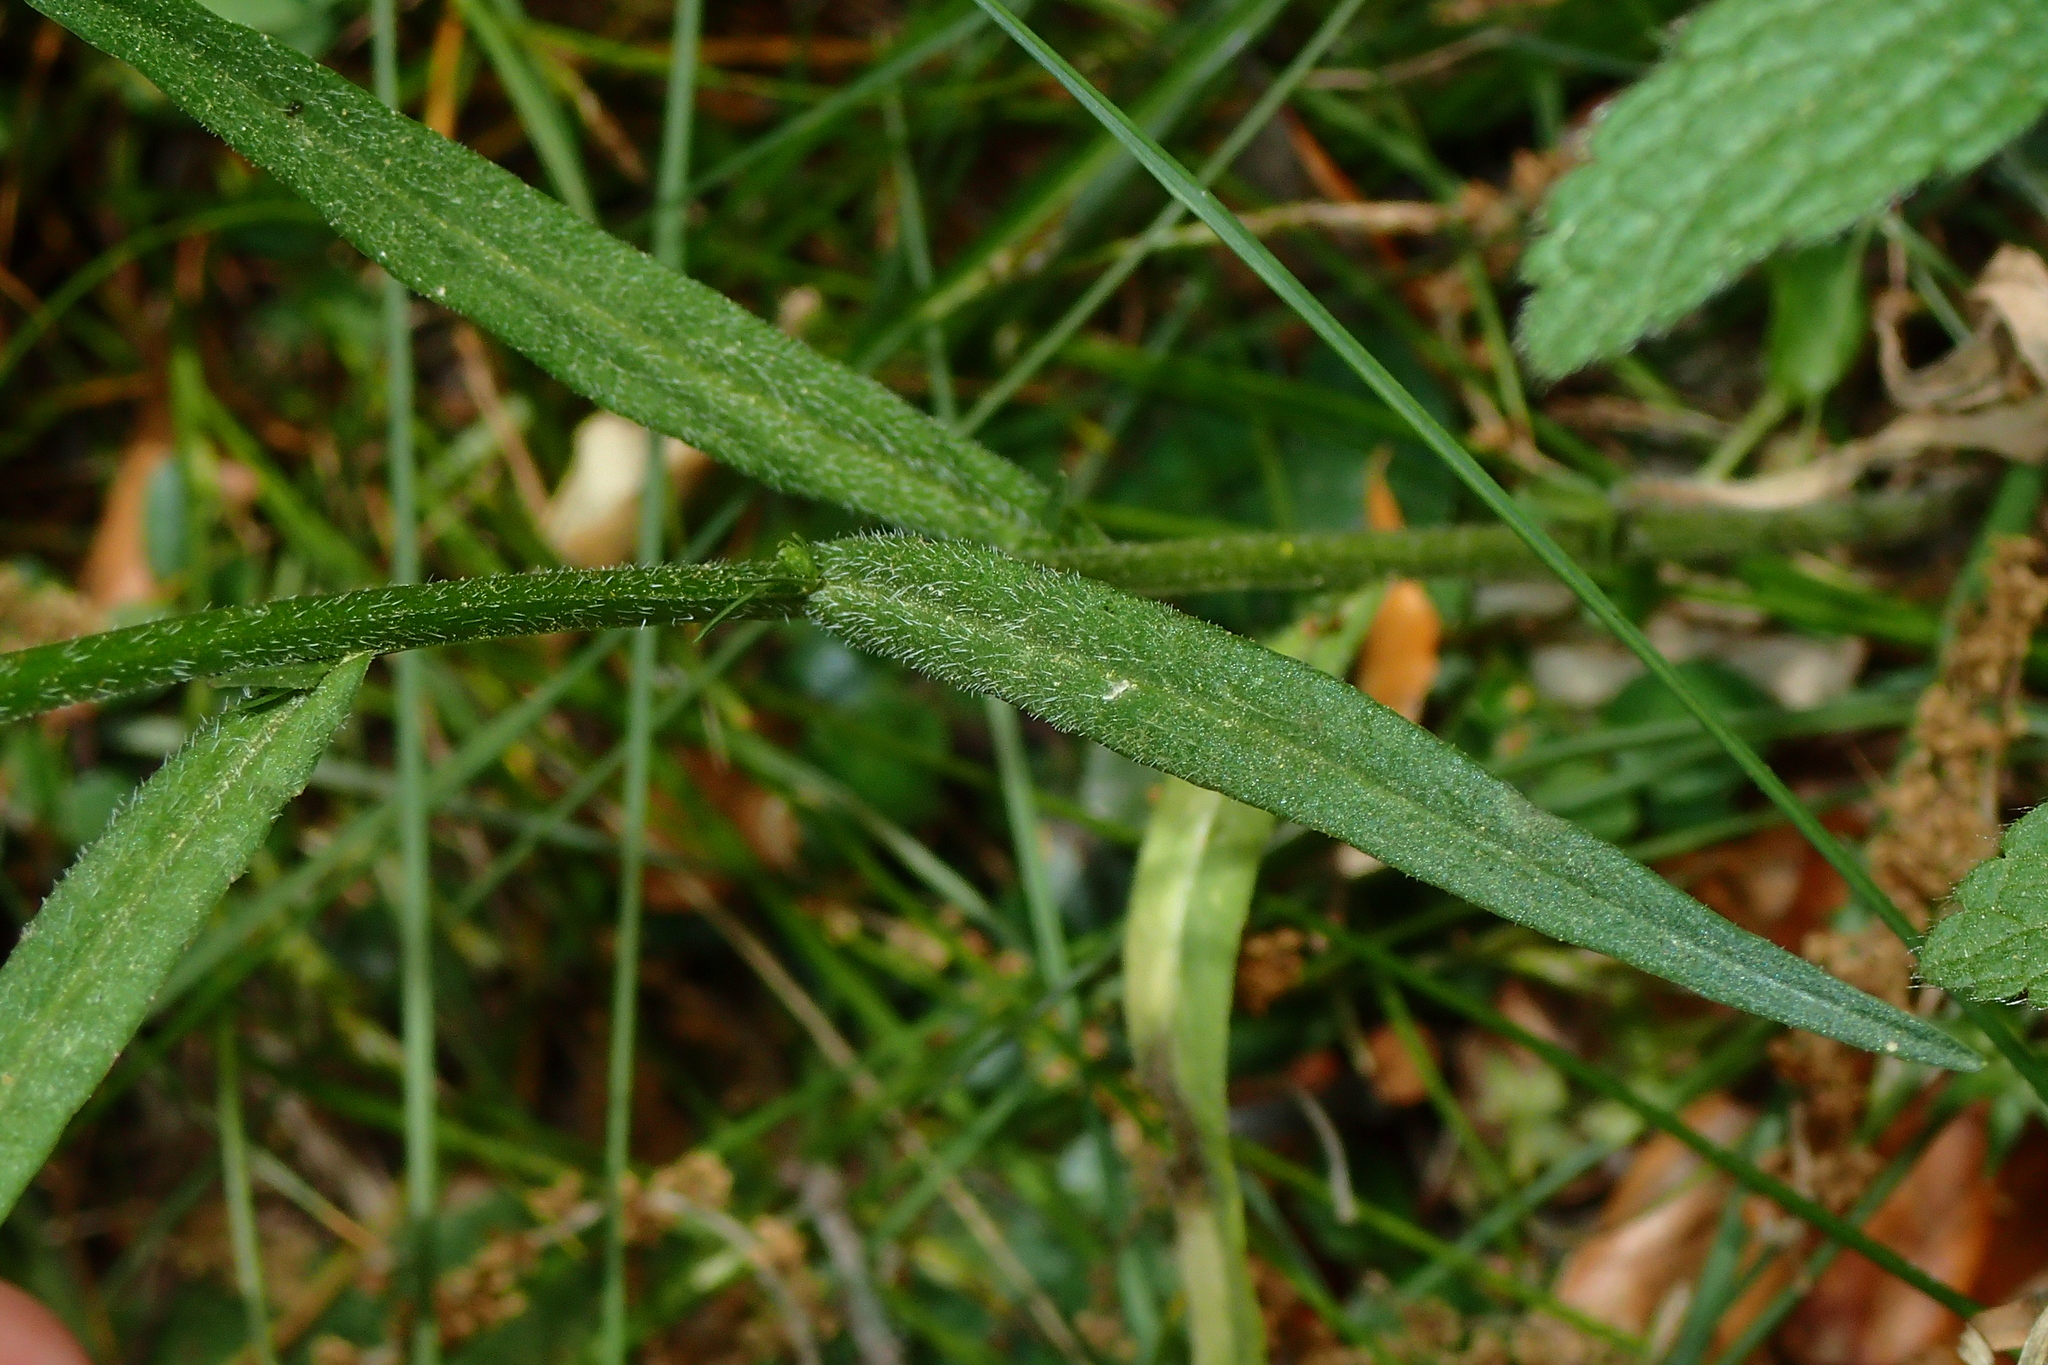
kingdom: Plantae
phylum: Tracheophyta
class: Magnoliopsida
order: Asterales
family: Campanulaceae
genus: Campanula
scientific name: Campanula rapunculus
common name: Rampion bellflower
